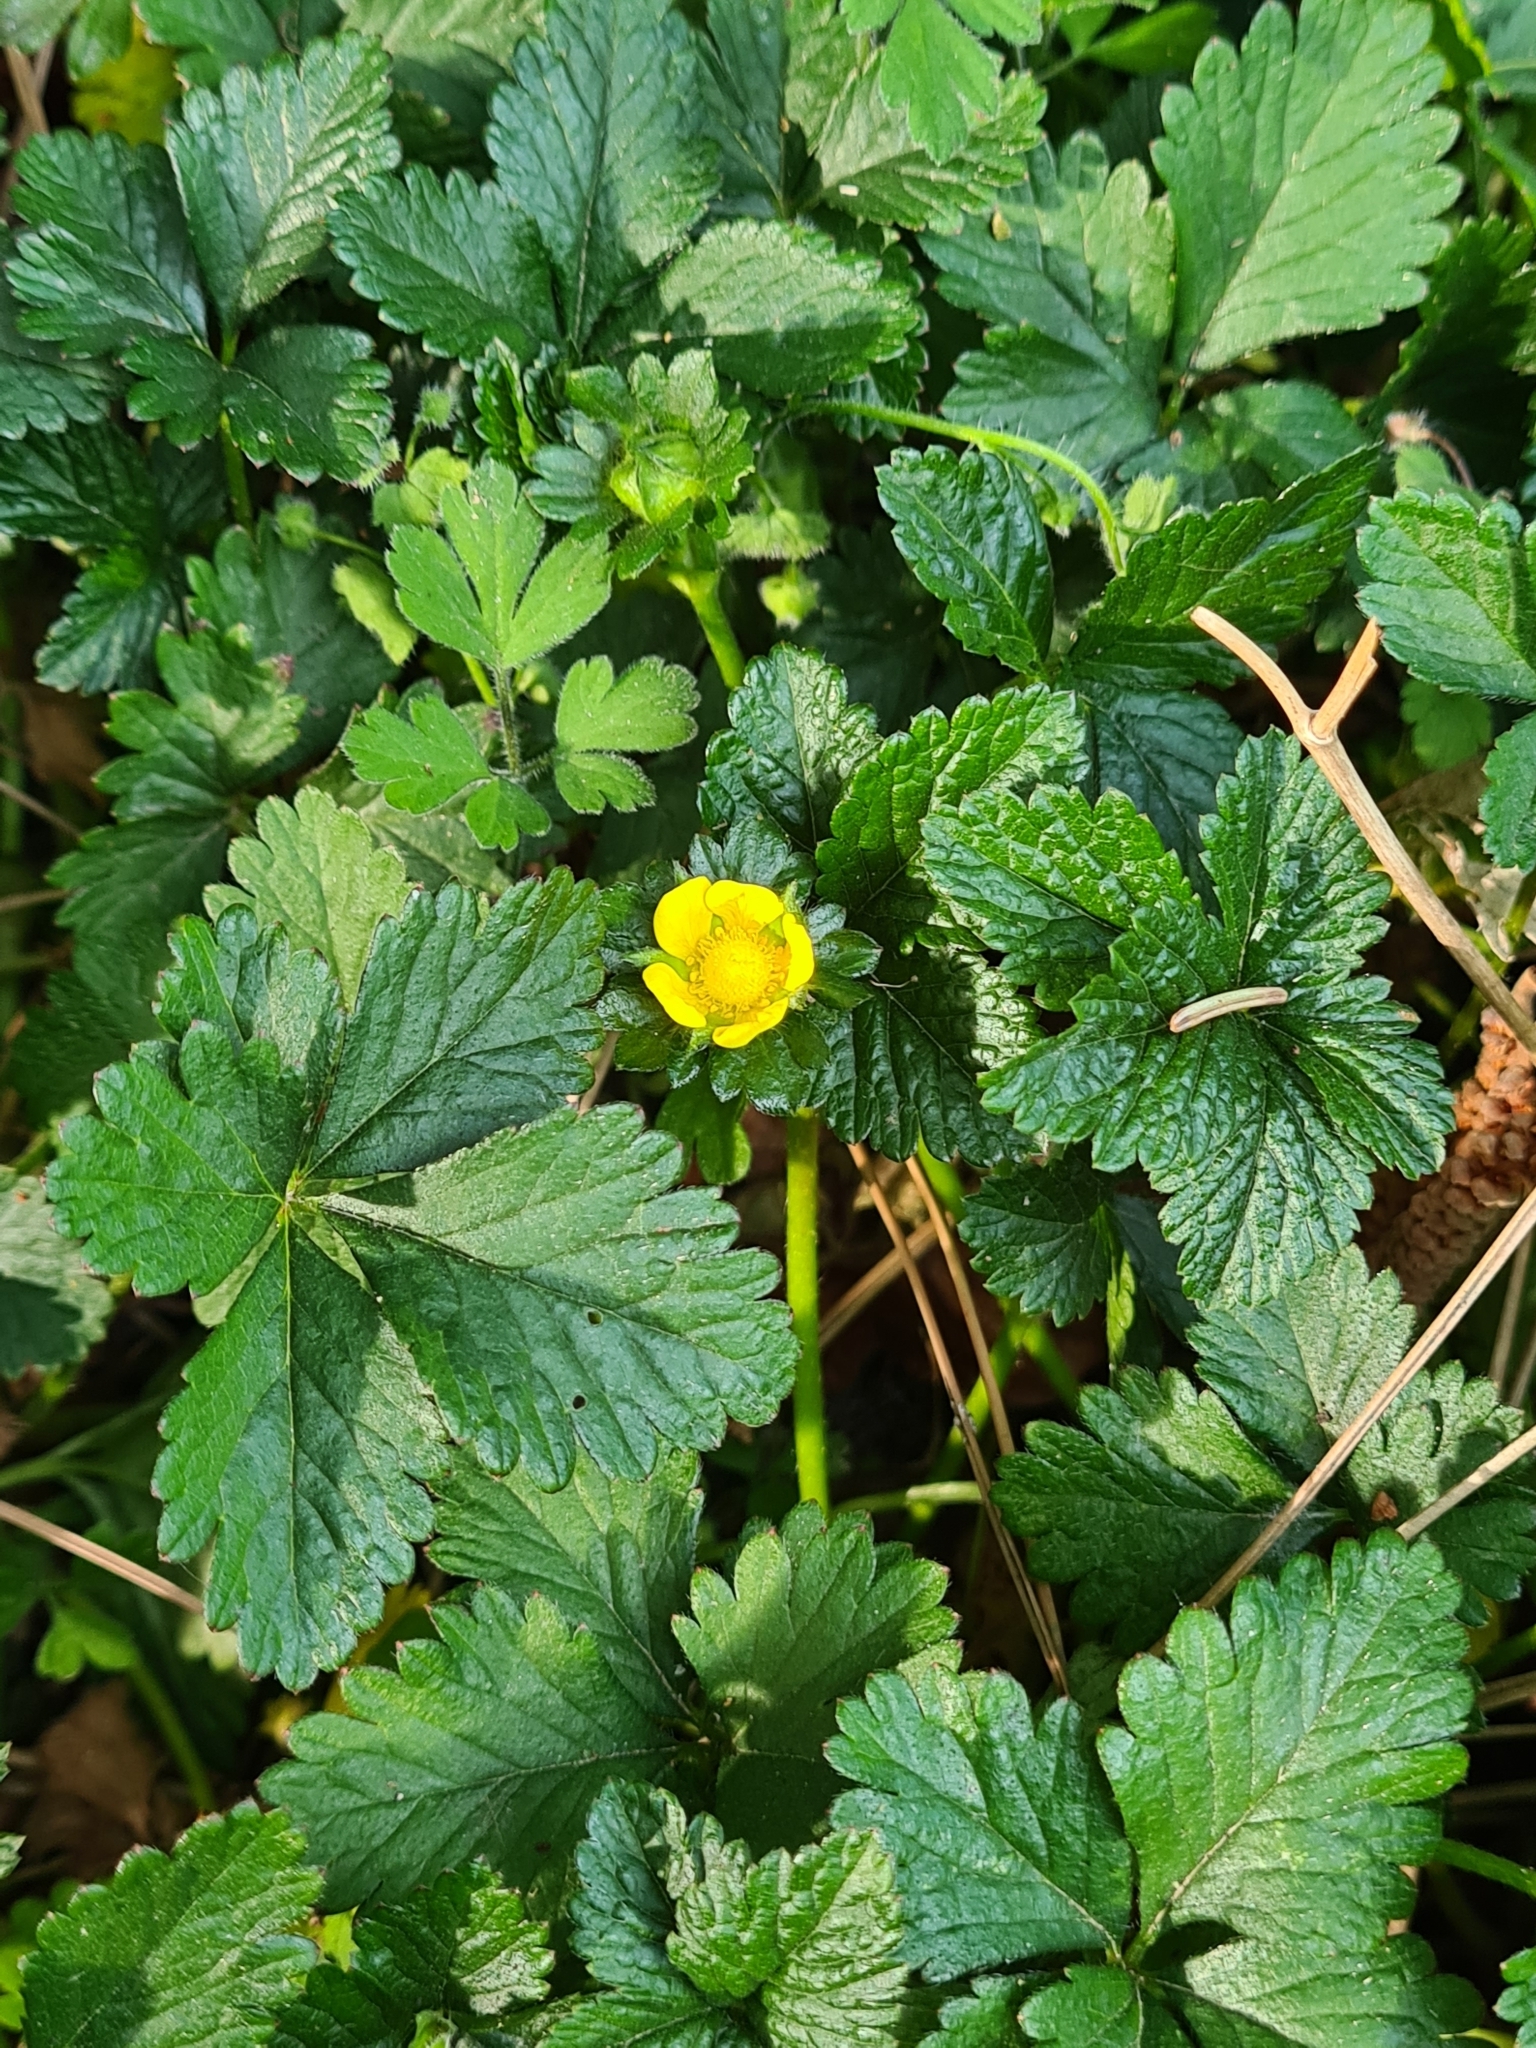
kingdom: Plantae
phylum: Tracheophyta
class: Magnoliopsida
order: Rosales
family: Rosaceae
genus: Potentilla
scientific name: Potentilla indica
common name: Yellow-flowered strawberry
